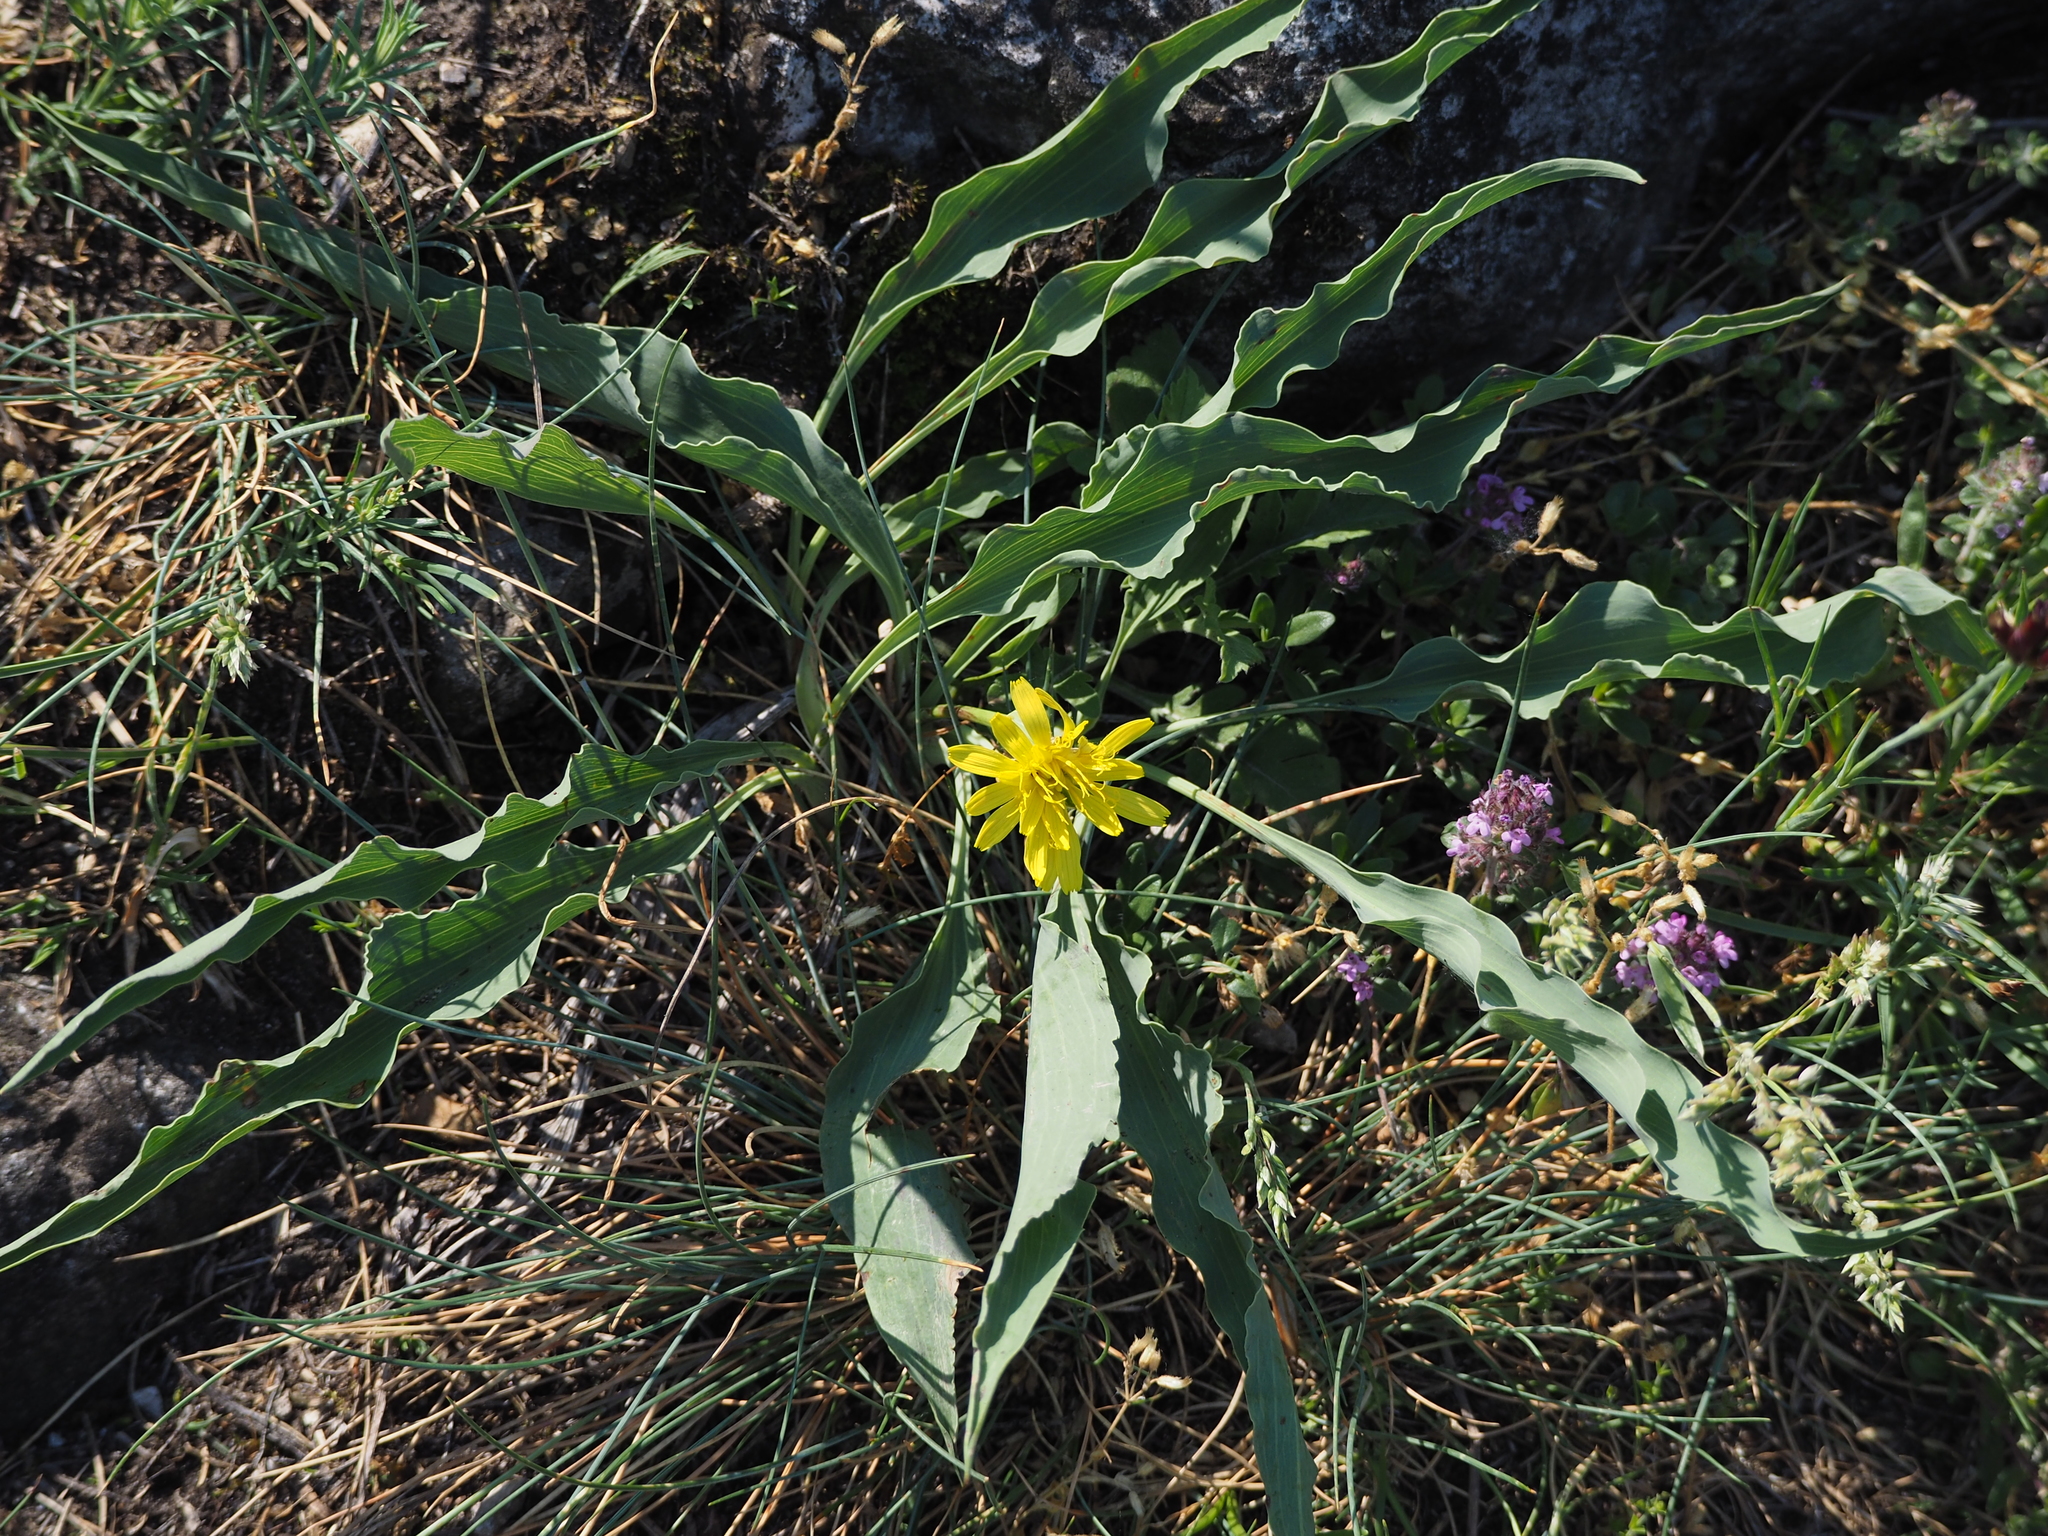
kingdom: Plantae
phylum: Tracheophyta
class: Magnoliopsida
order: Asterales
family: Asteraceae
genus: Takhtajaniantha
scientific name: Takhtajaniantha austriaca
